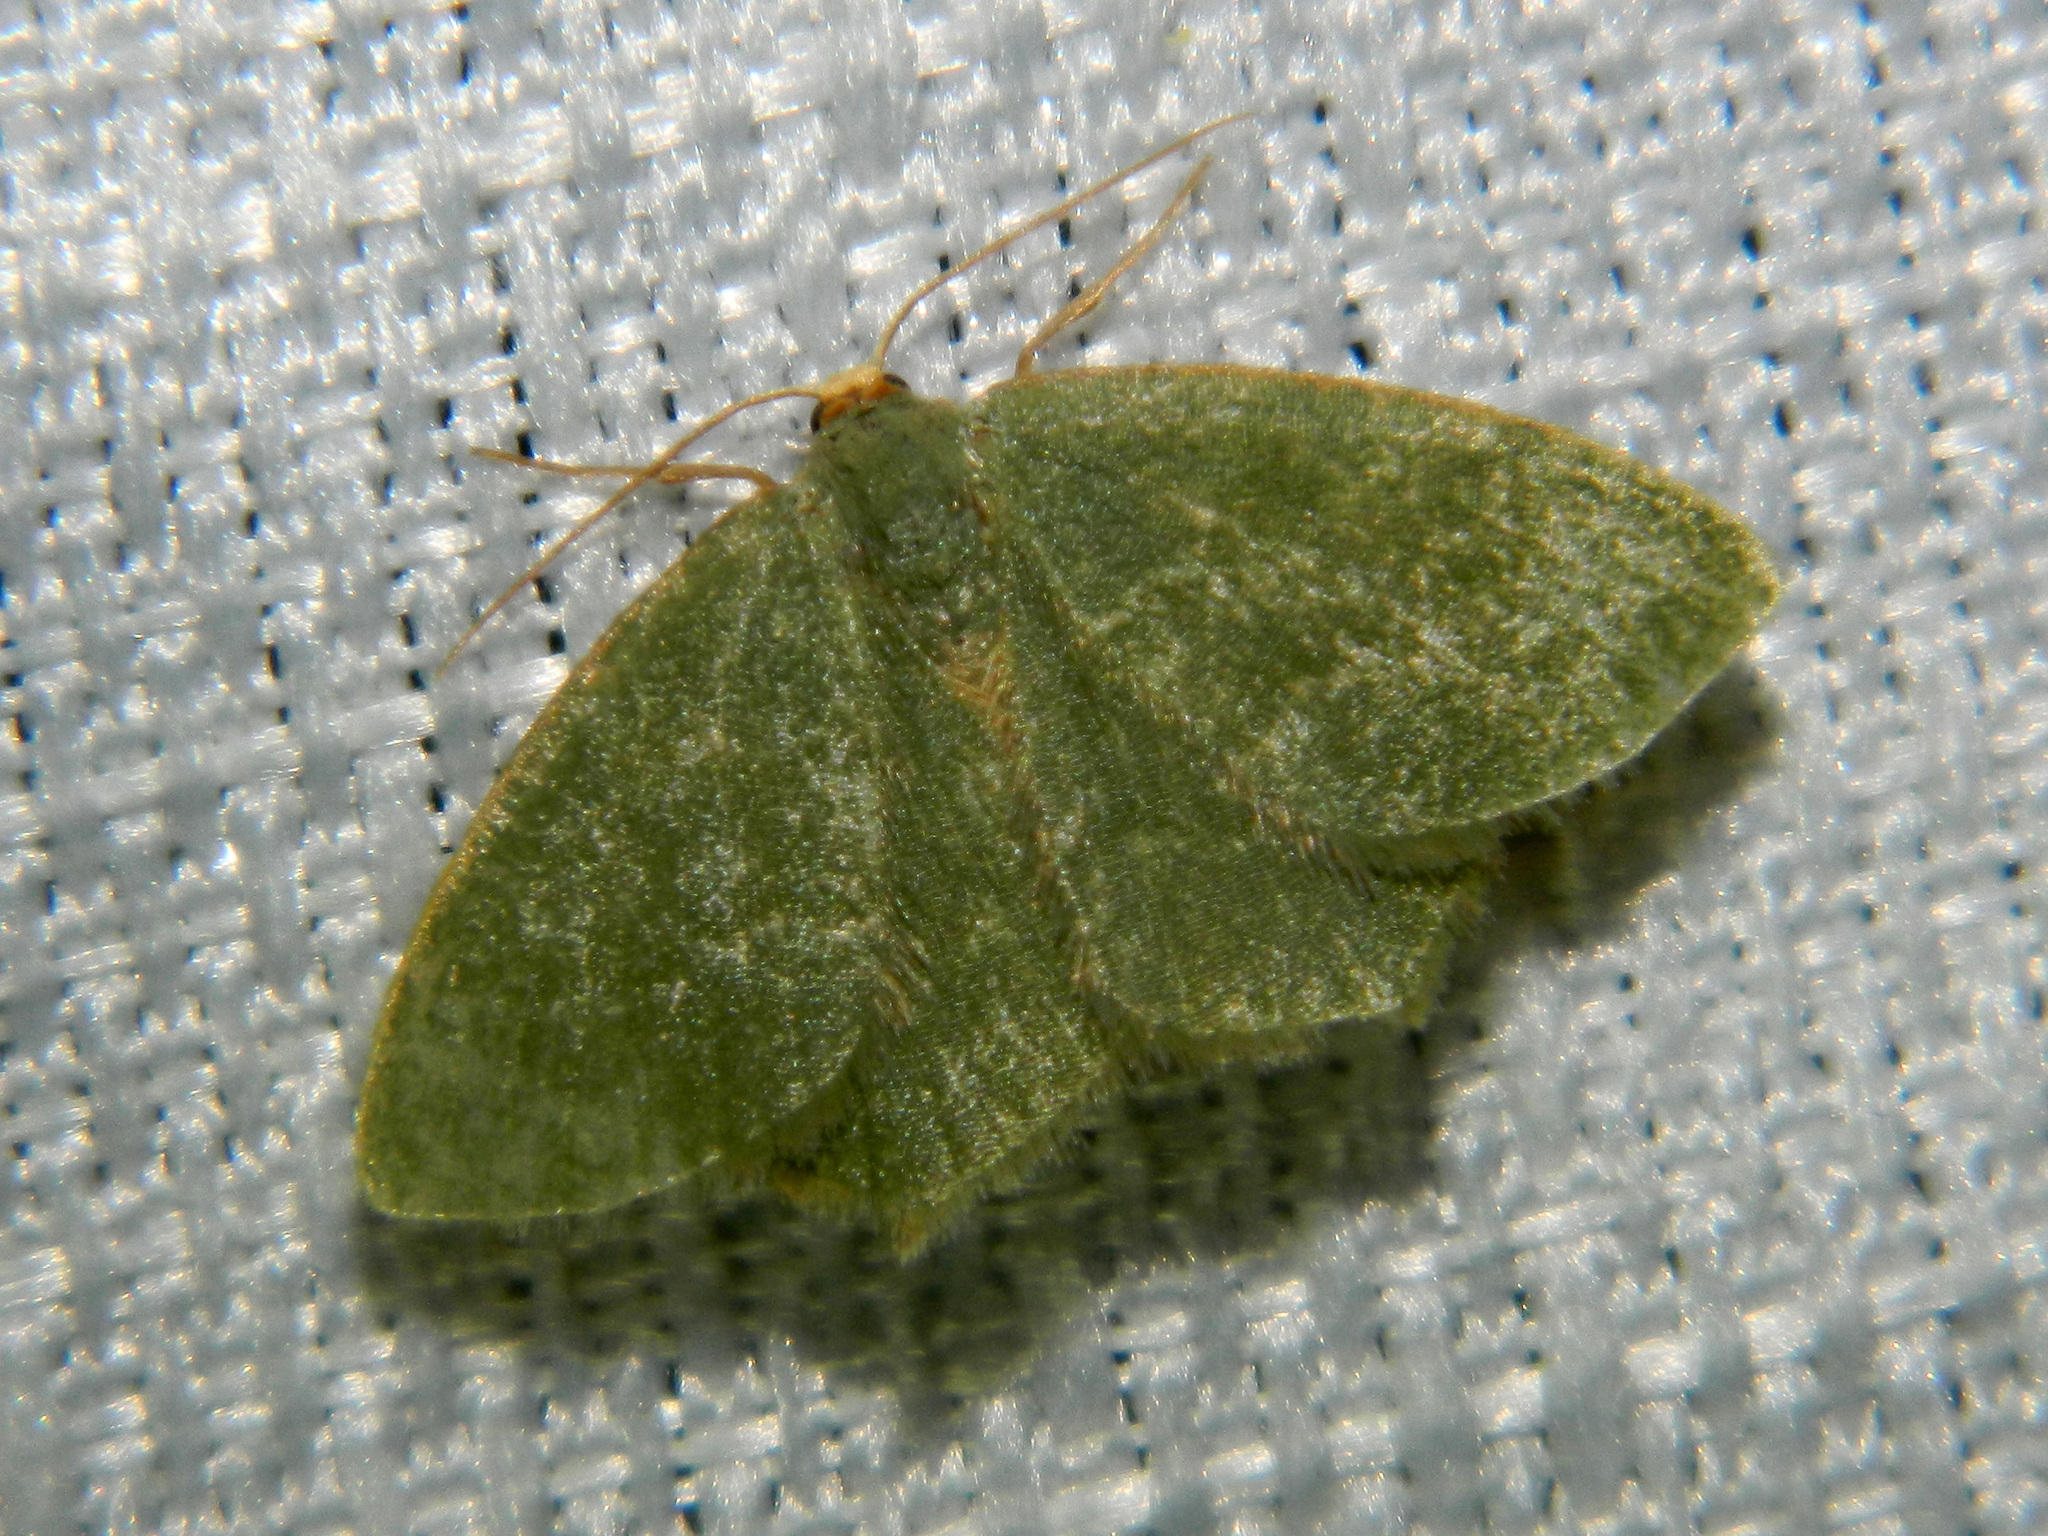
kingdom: Animalia
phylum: Arthropoda
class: Insecta
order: Lepidoptera
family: Geometridae
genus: Thalera
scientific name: Thalera pistasciaria
